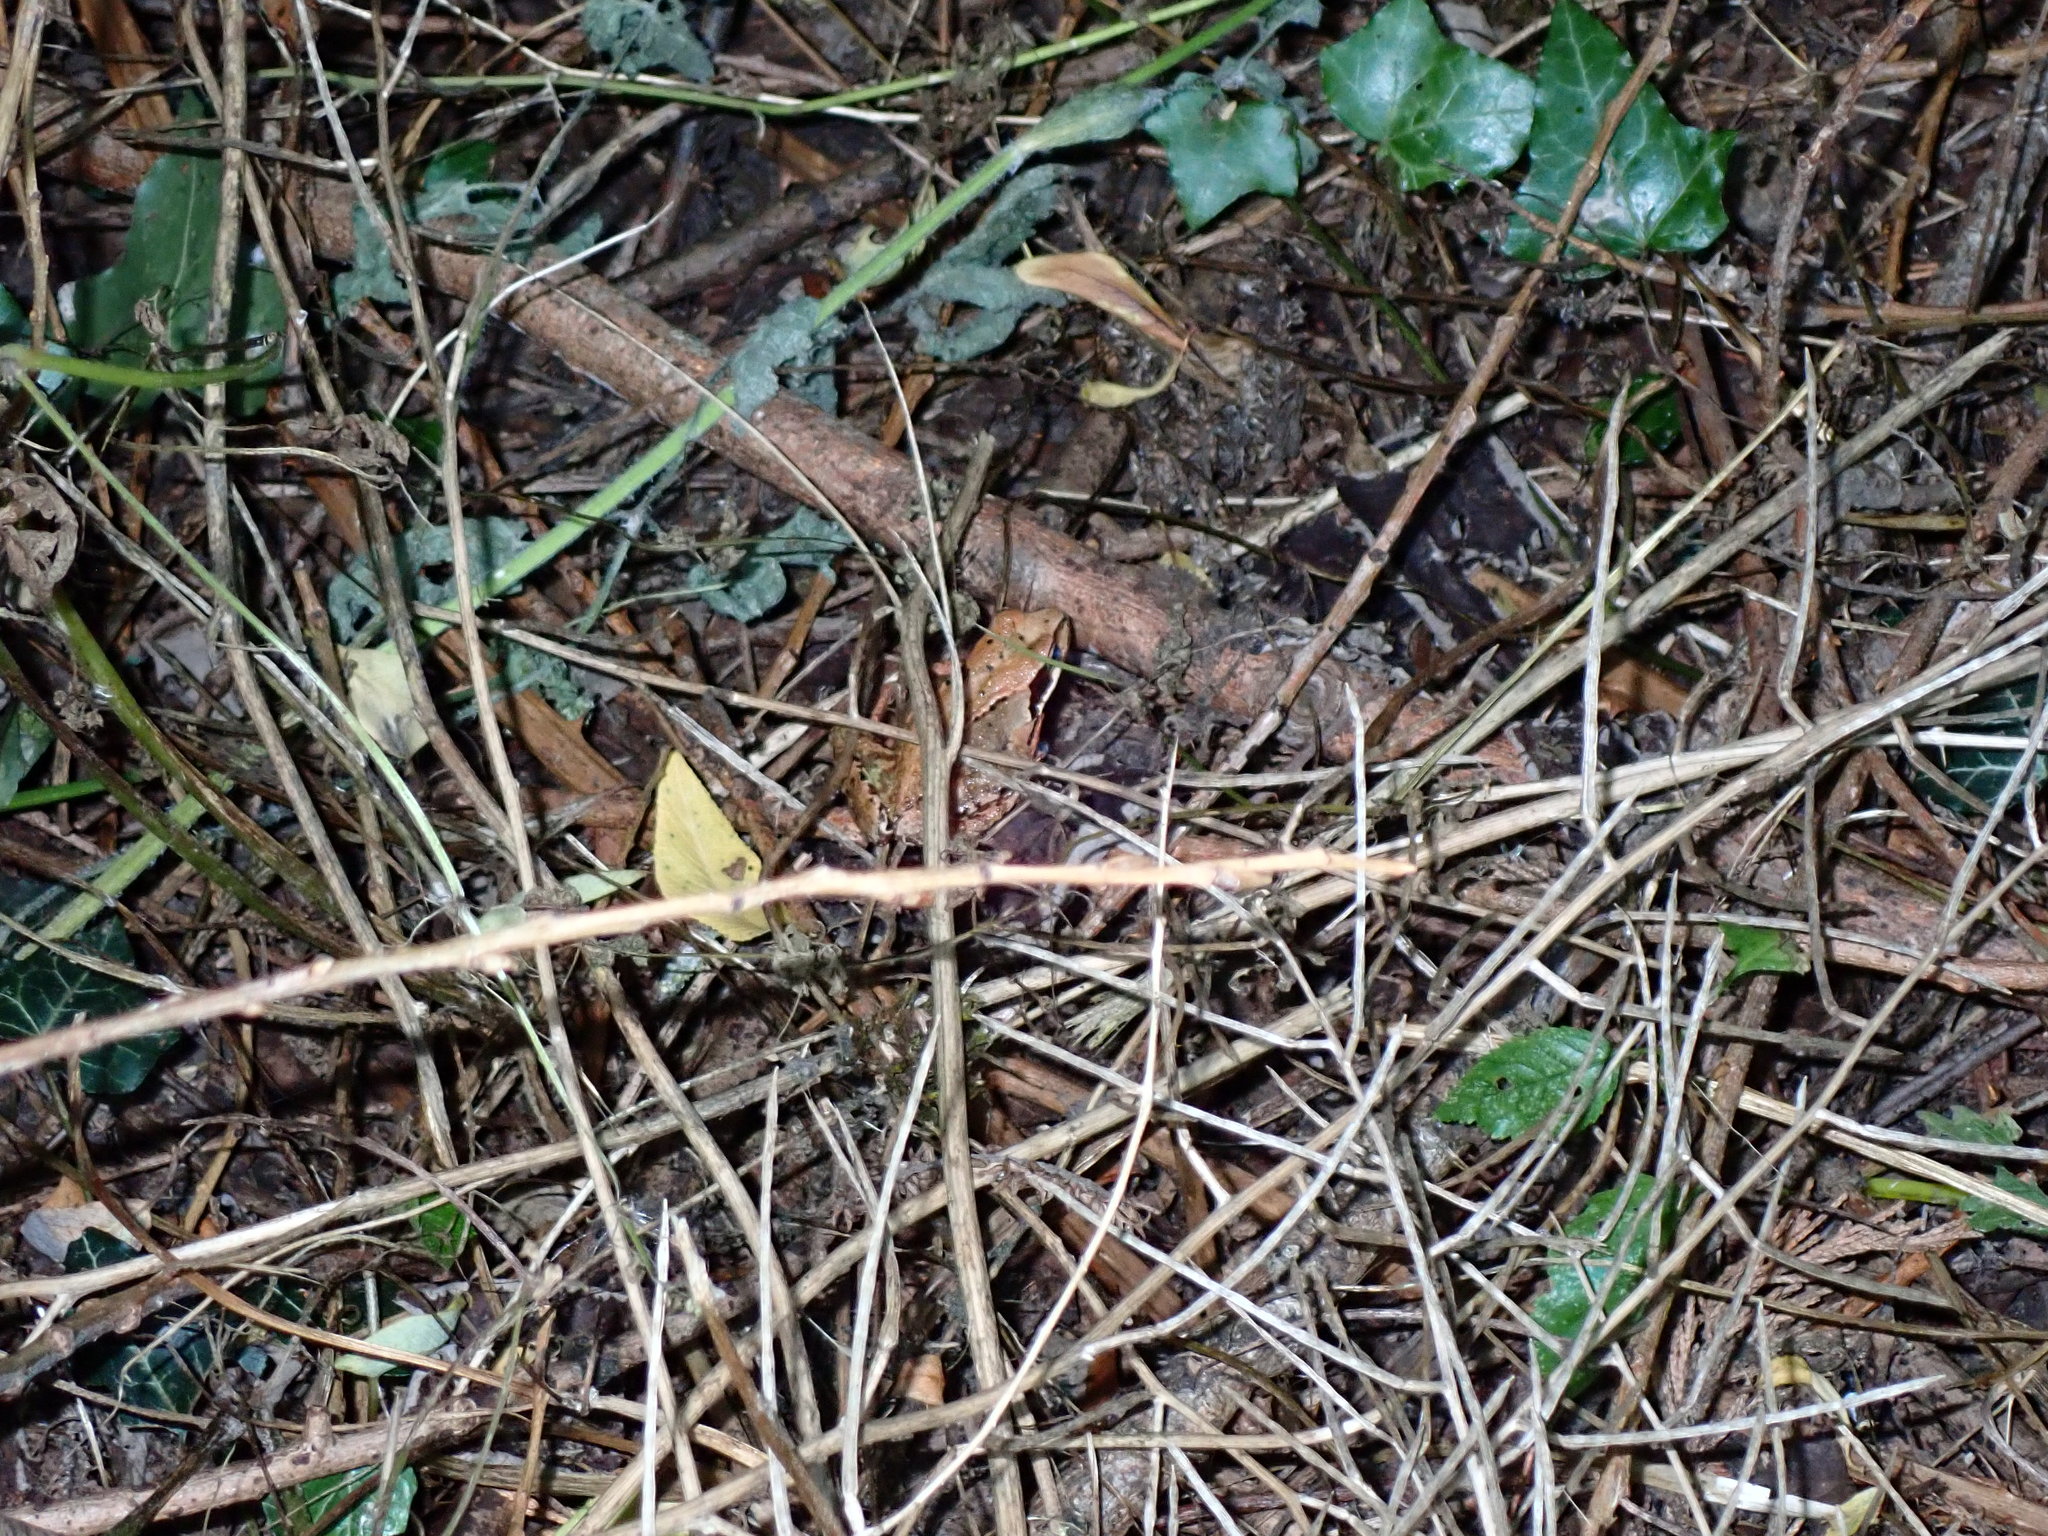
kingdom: Animalia
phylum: Chordata
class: Amphibia
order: Anura
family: Ranidae
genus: Rana
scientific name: Rana temporaria
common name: Common frog
